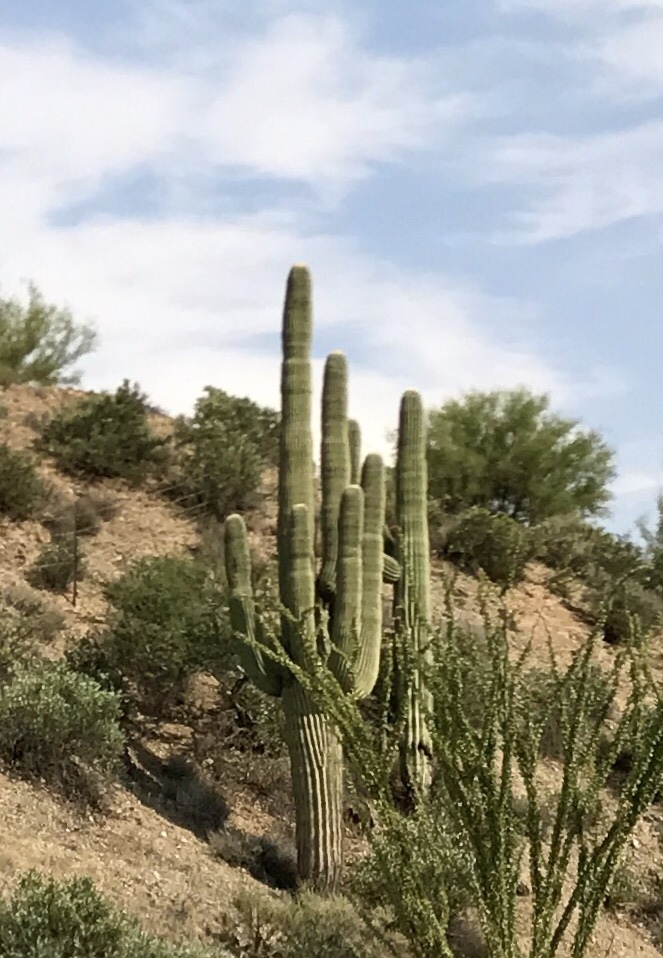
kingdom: Plantae
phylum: Tracheophyta
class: Magnoliopsida
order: Caryophyllales
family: Cactaceae
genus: Carnegiea
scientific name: Carnegiea gigantea
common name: Saguaro
